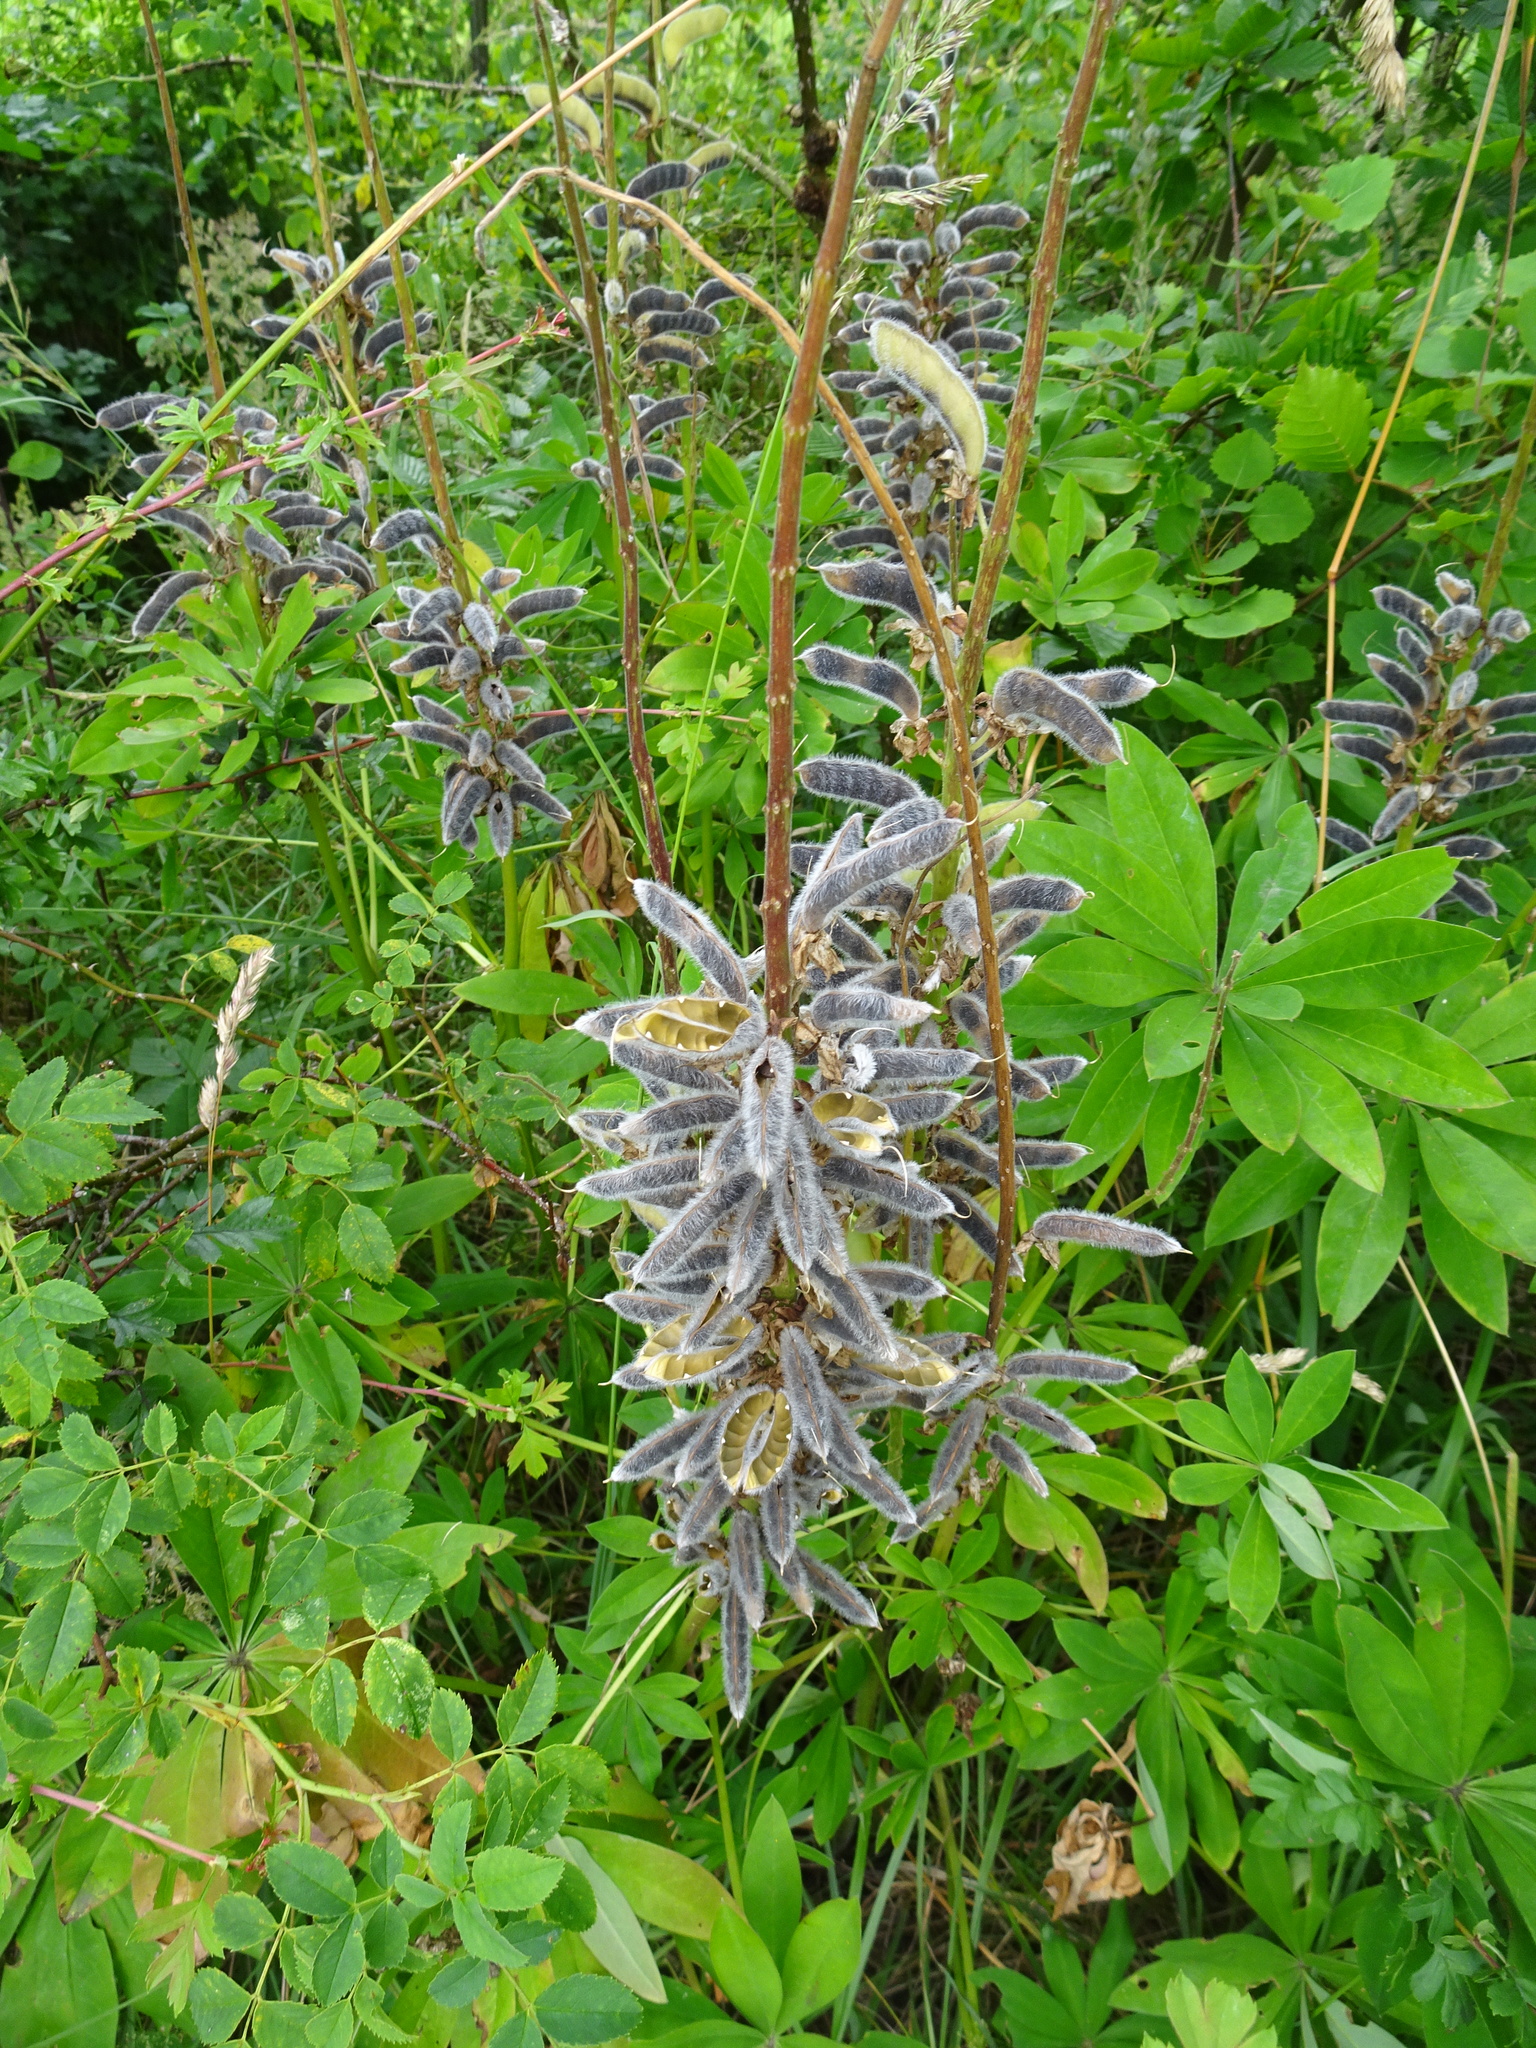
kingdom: Plantae
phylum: Tracheophyta
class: Magnoliopsida
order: Fabales
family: Fabaceae
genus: Lupinus
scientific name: Lupinus polyphyllus
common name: Garden lupin
